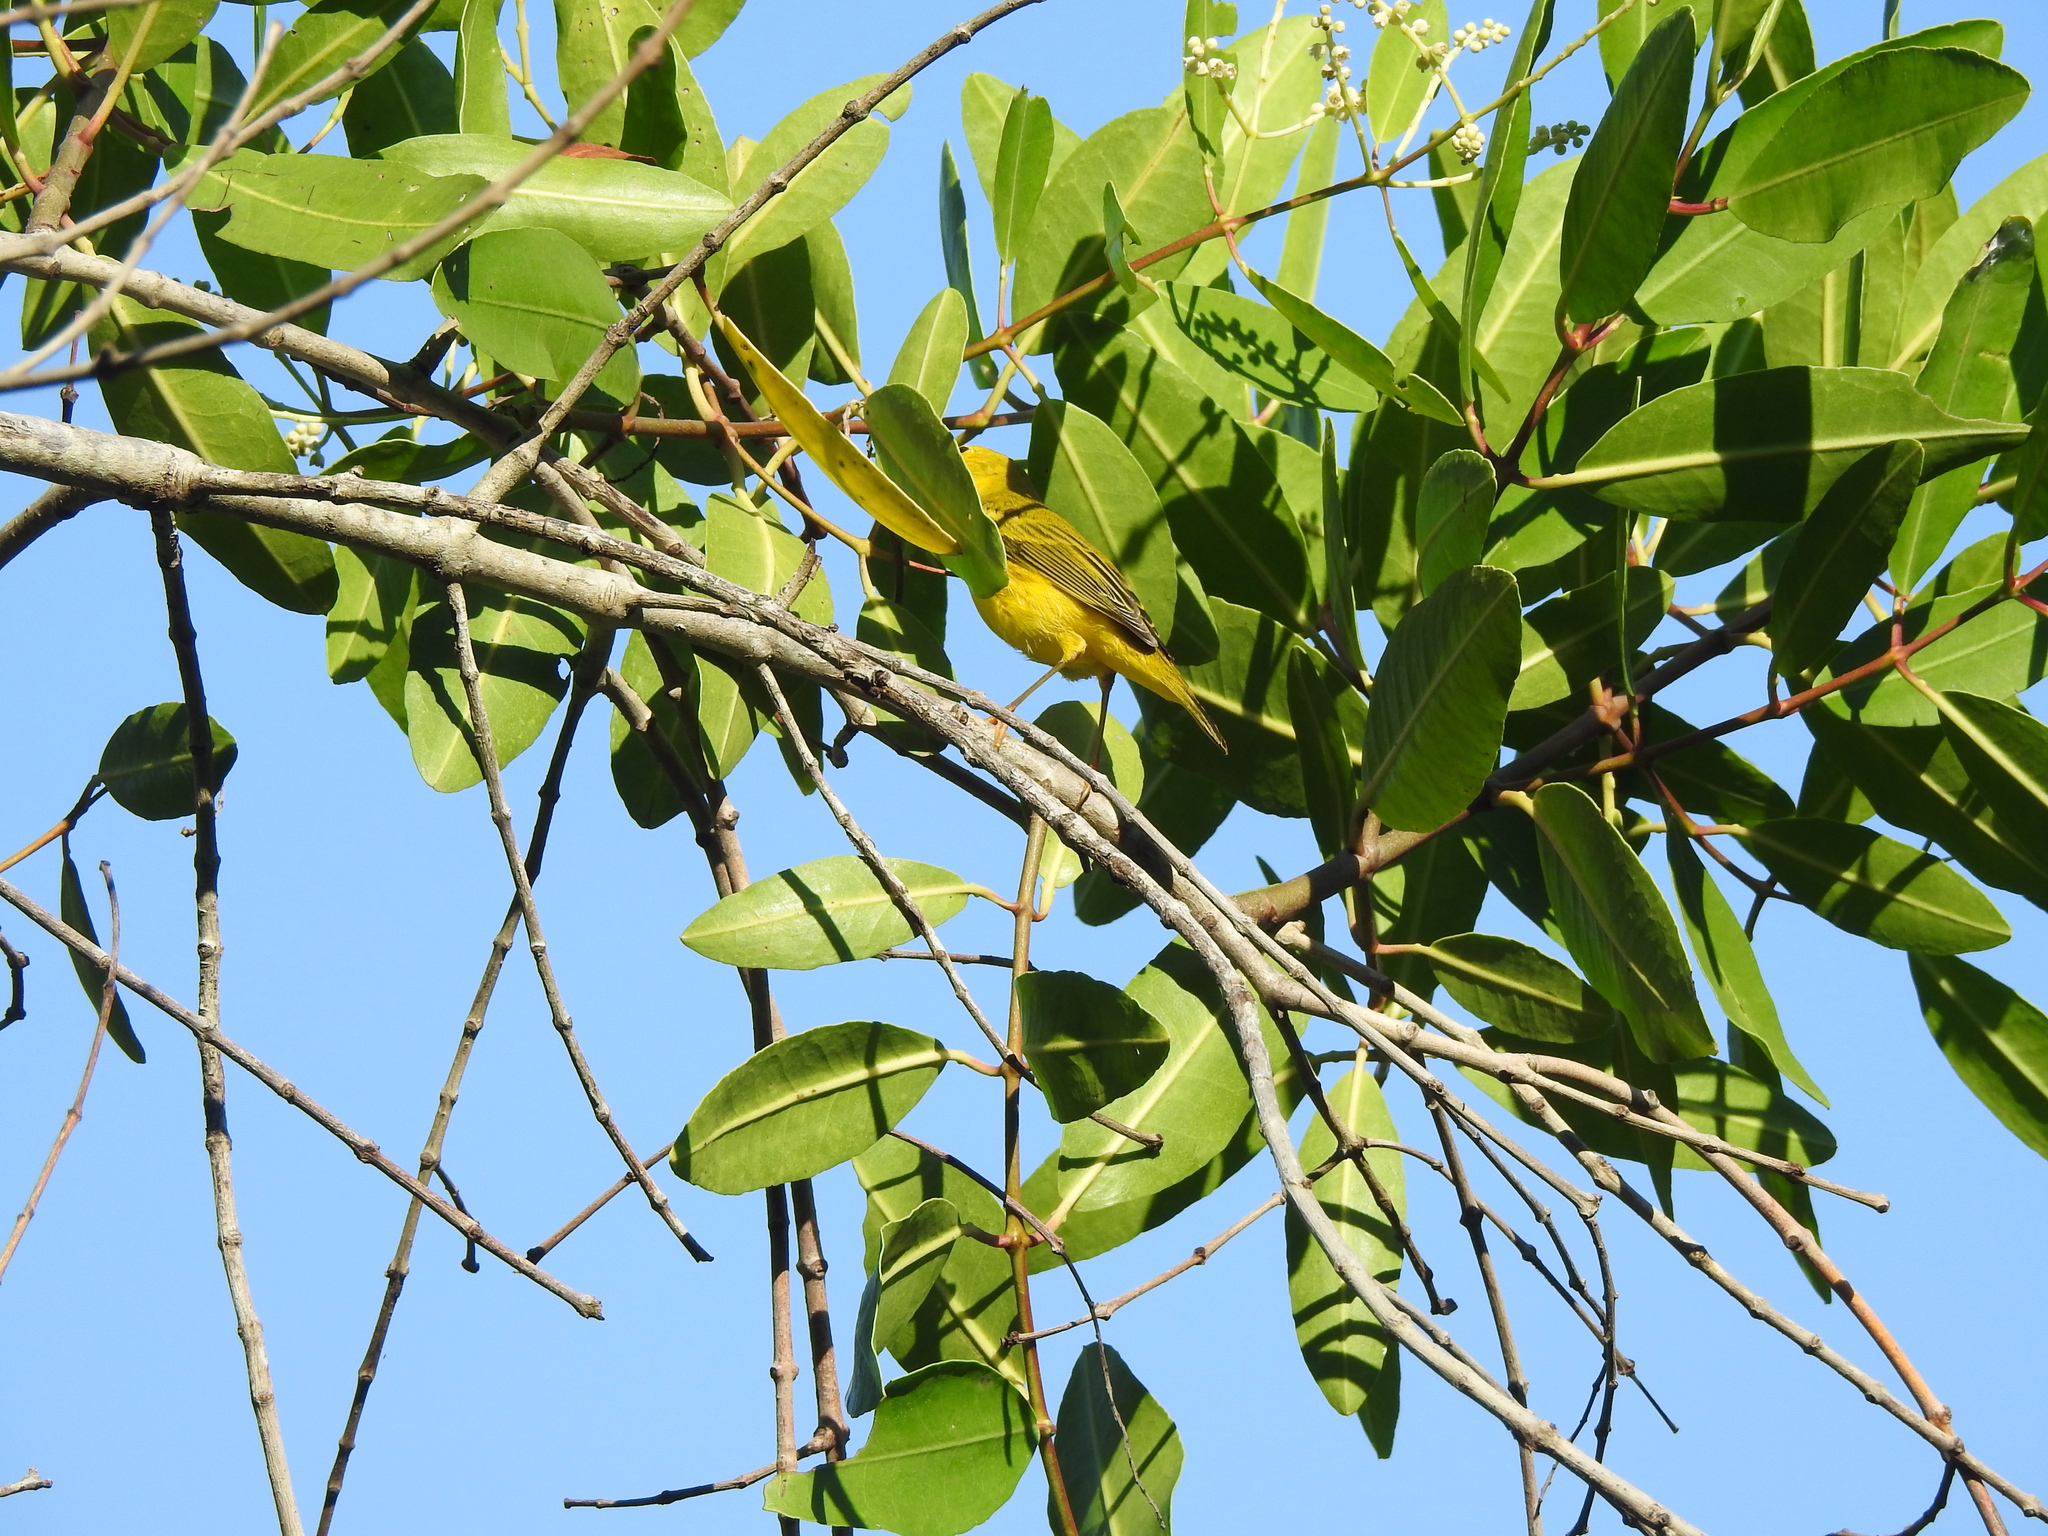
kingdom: Animalia
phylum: Chordata
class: Aves
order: Passeriformes
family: Parulidae
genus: Setophaga
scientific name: Setophaga petechia
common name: Yellow warbler
